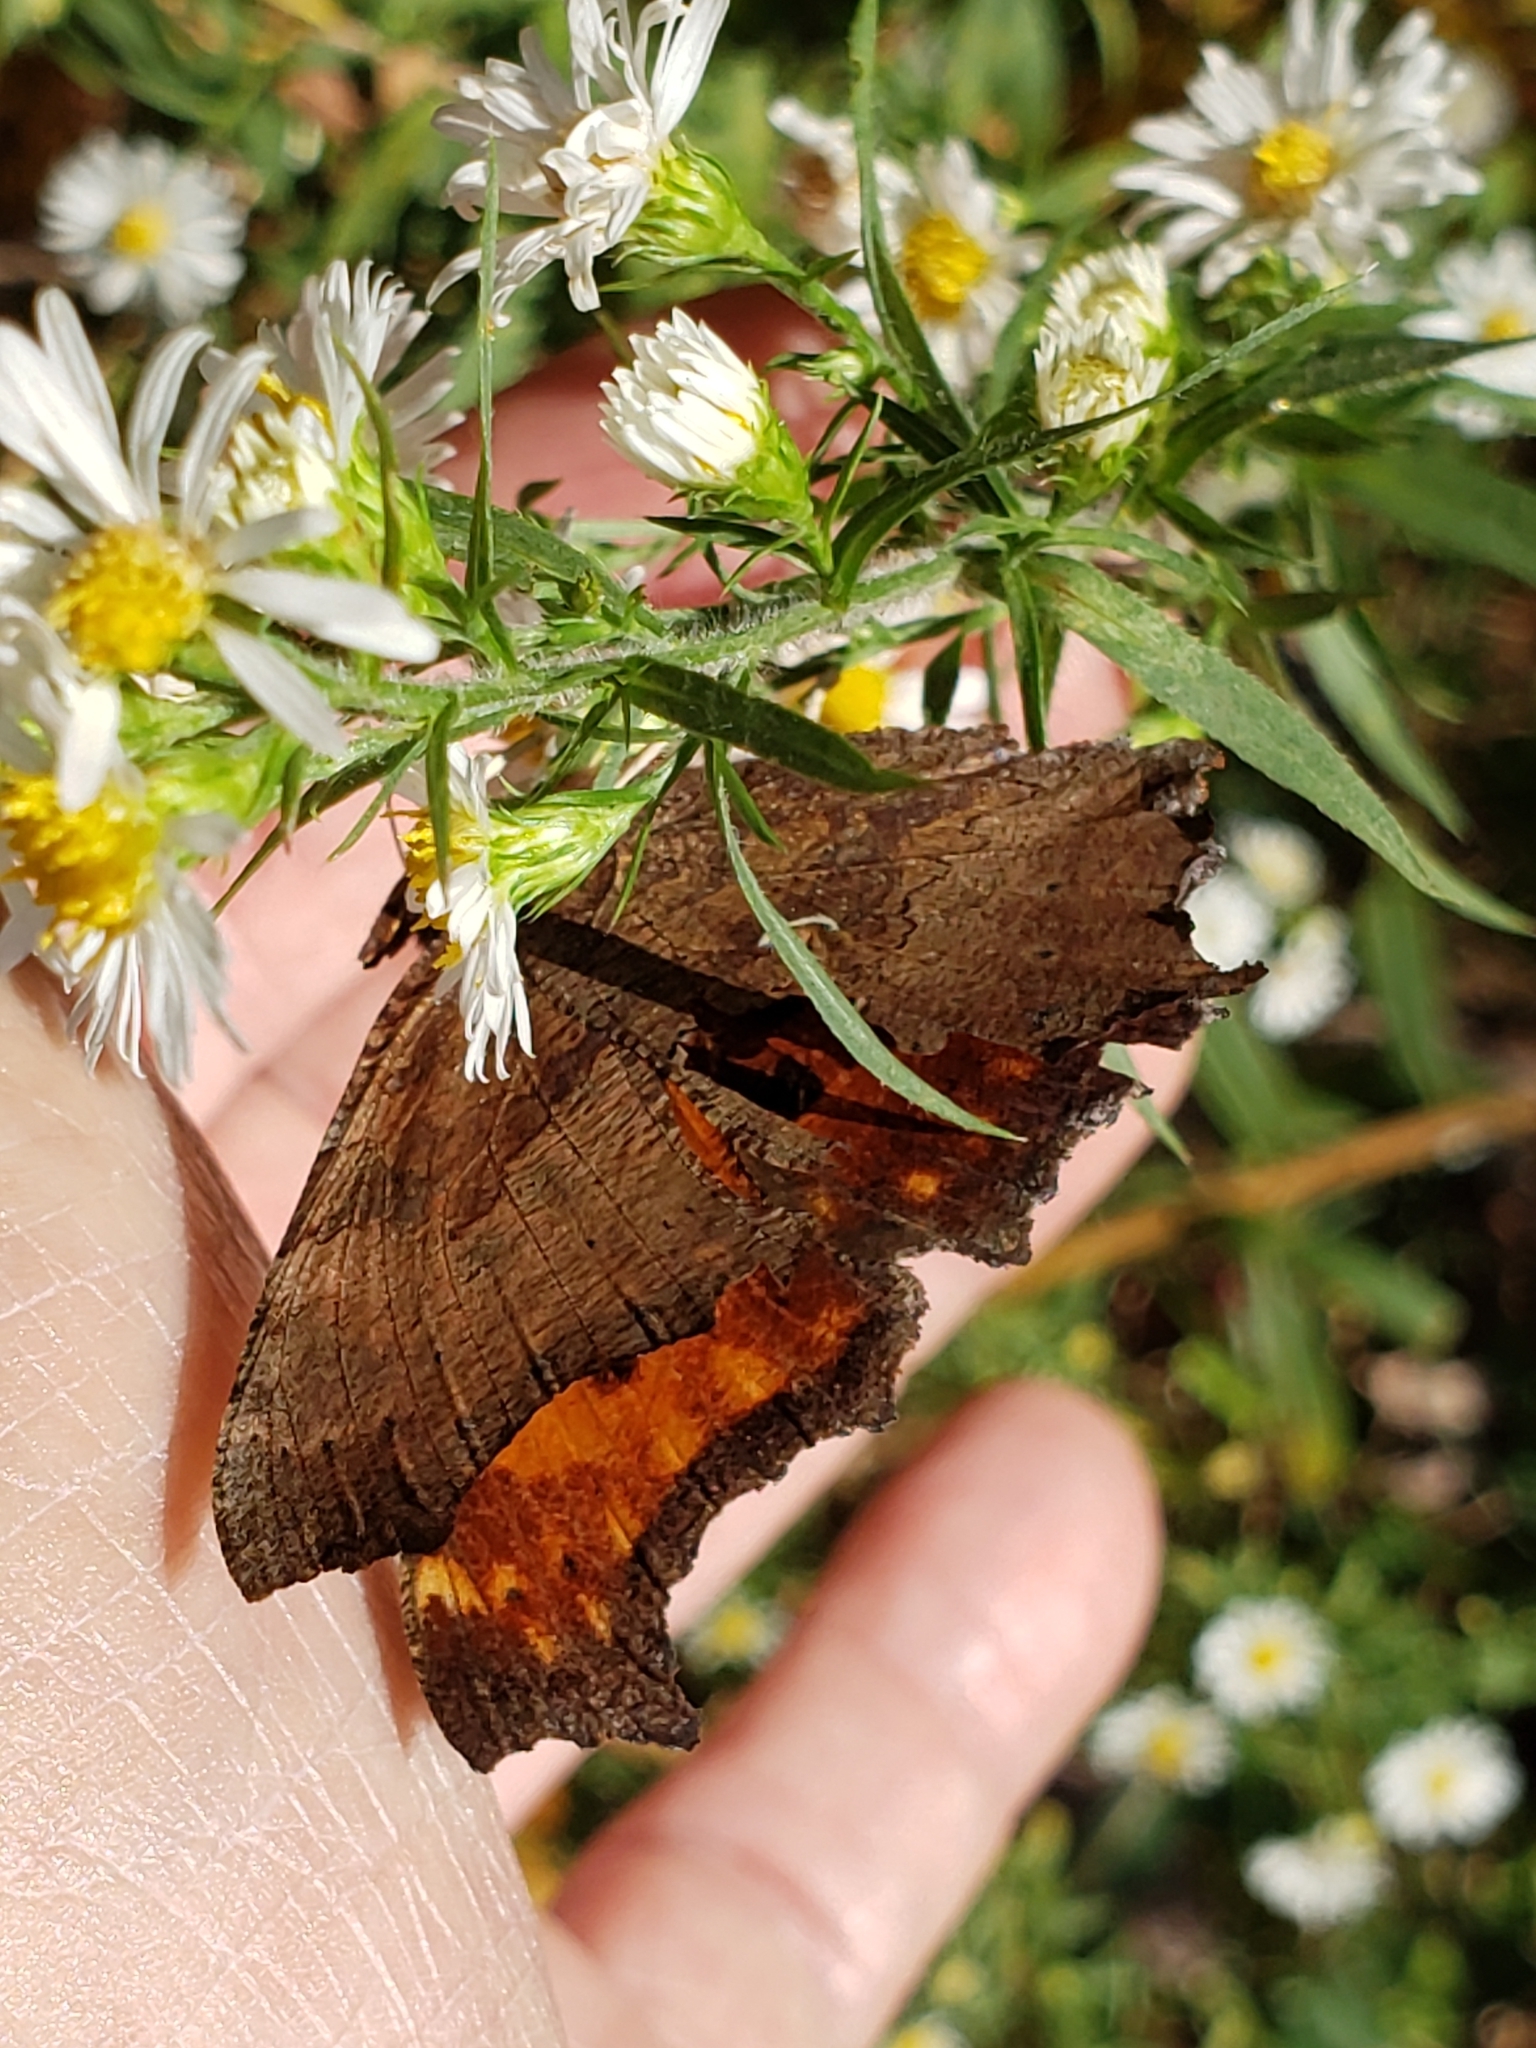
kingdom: Animalia
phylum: Arthropoda
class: Insecta
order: Lepidoptera
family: Nymphalidae
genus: Polygonia
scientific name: Polygonia comma
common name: Eastern comma
